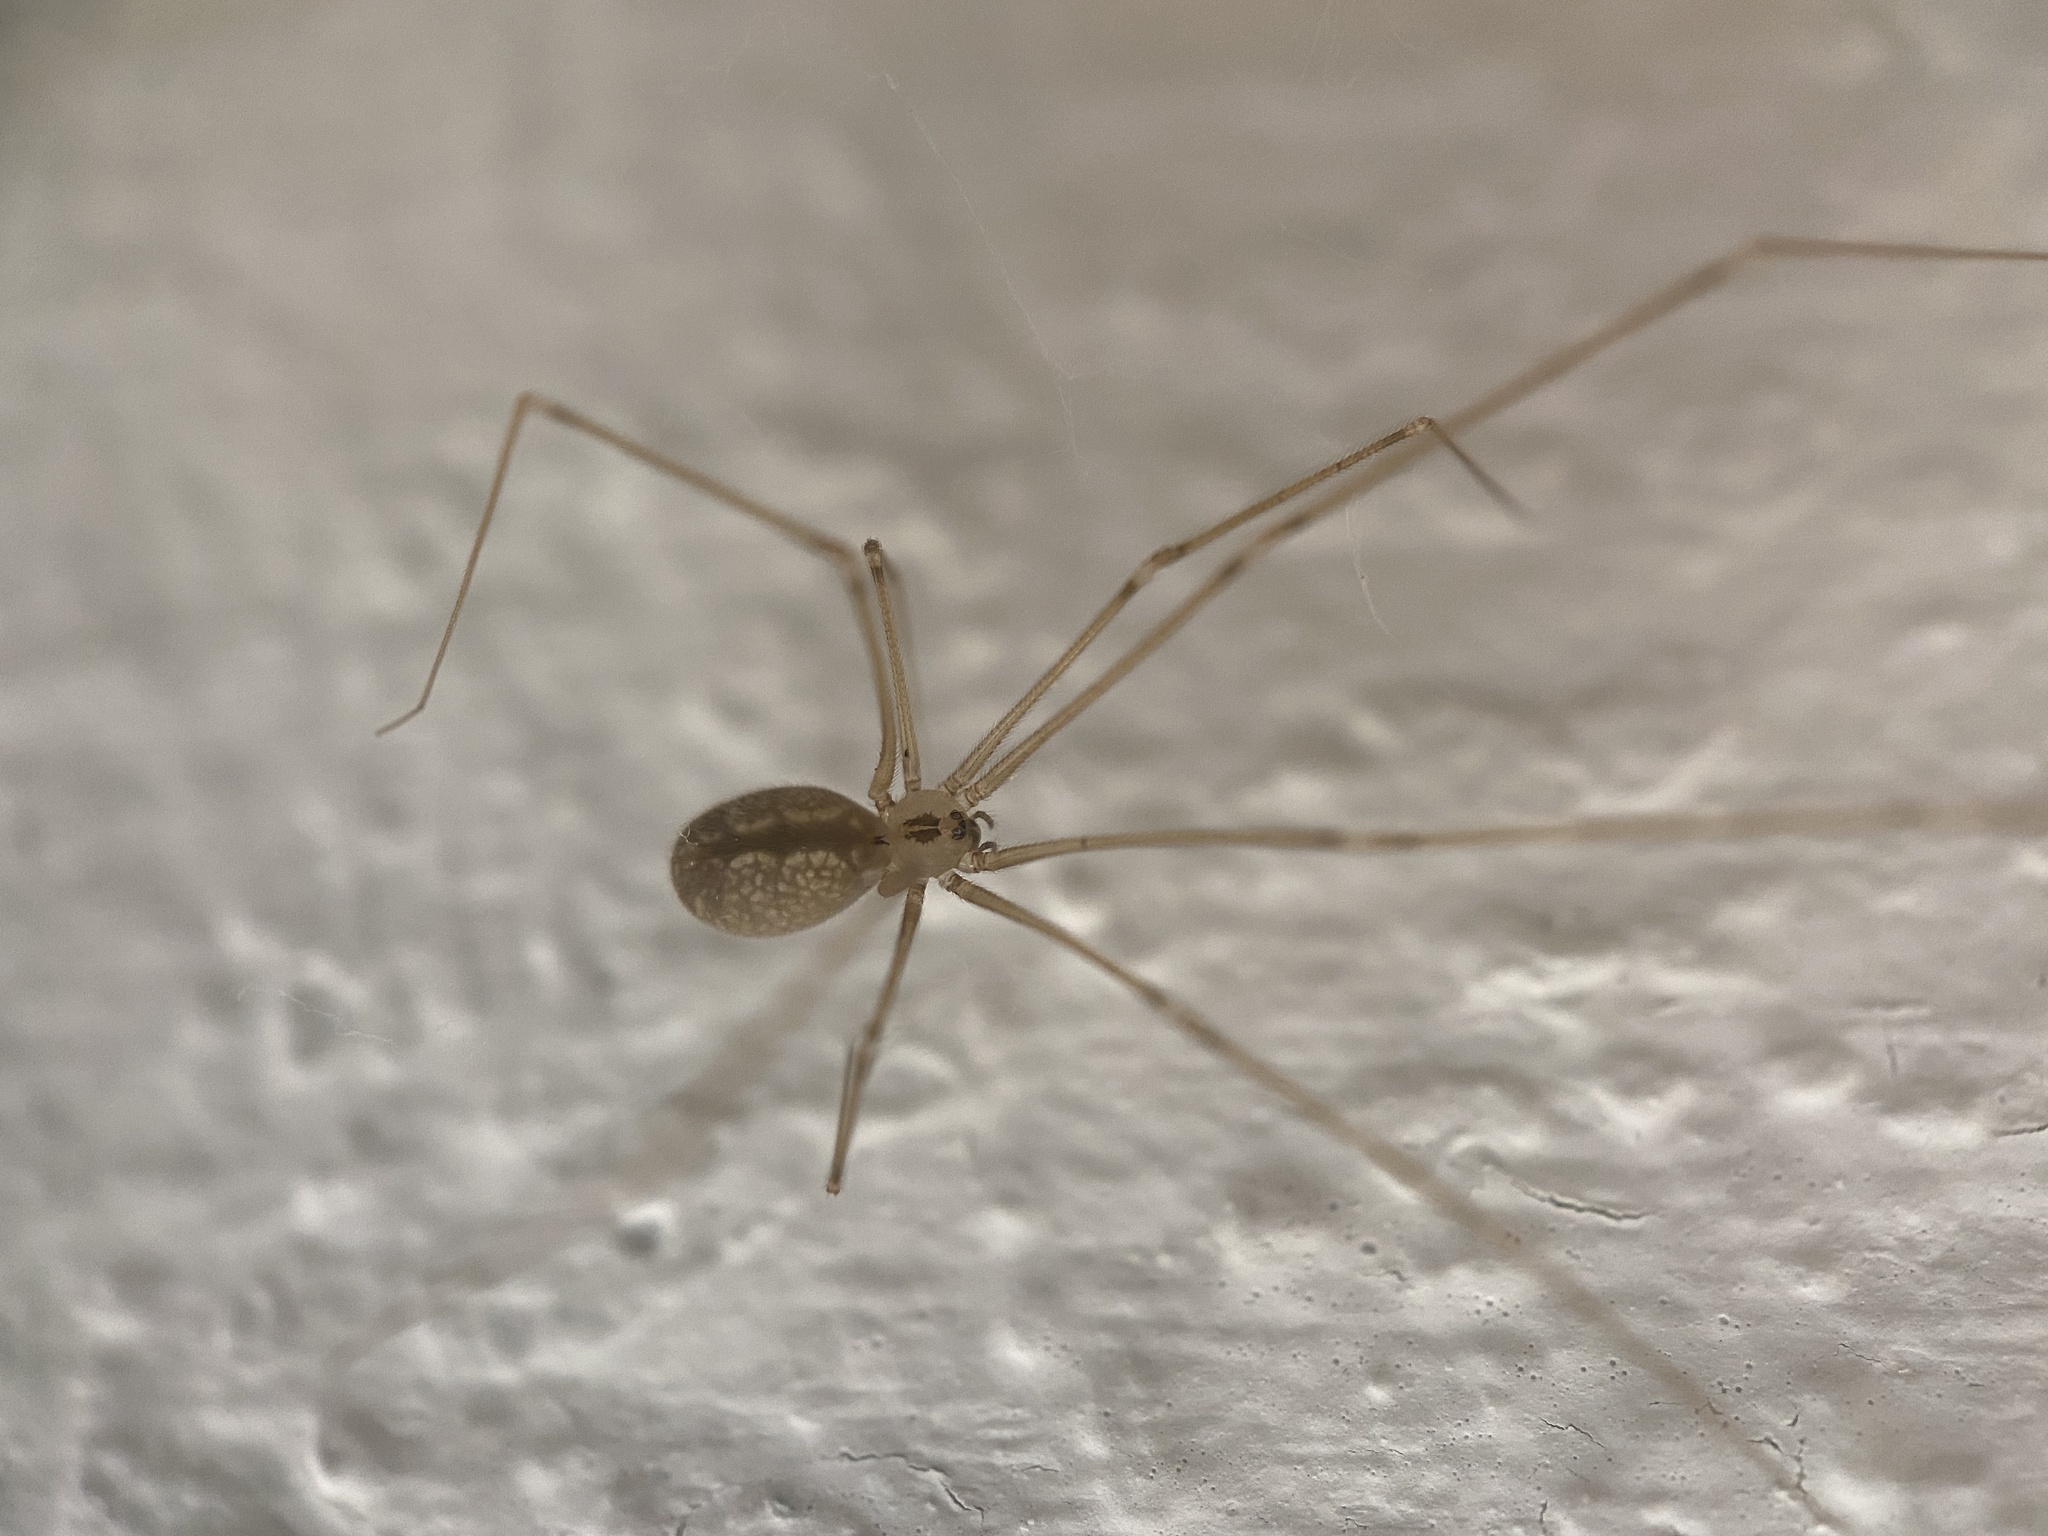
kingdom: Animalia
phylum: Arthropoda
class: Arachnida
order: Araneae
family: Pholcidae
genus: Pholcus
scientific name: Pholcus manueli
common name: Cellar spider
